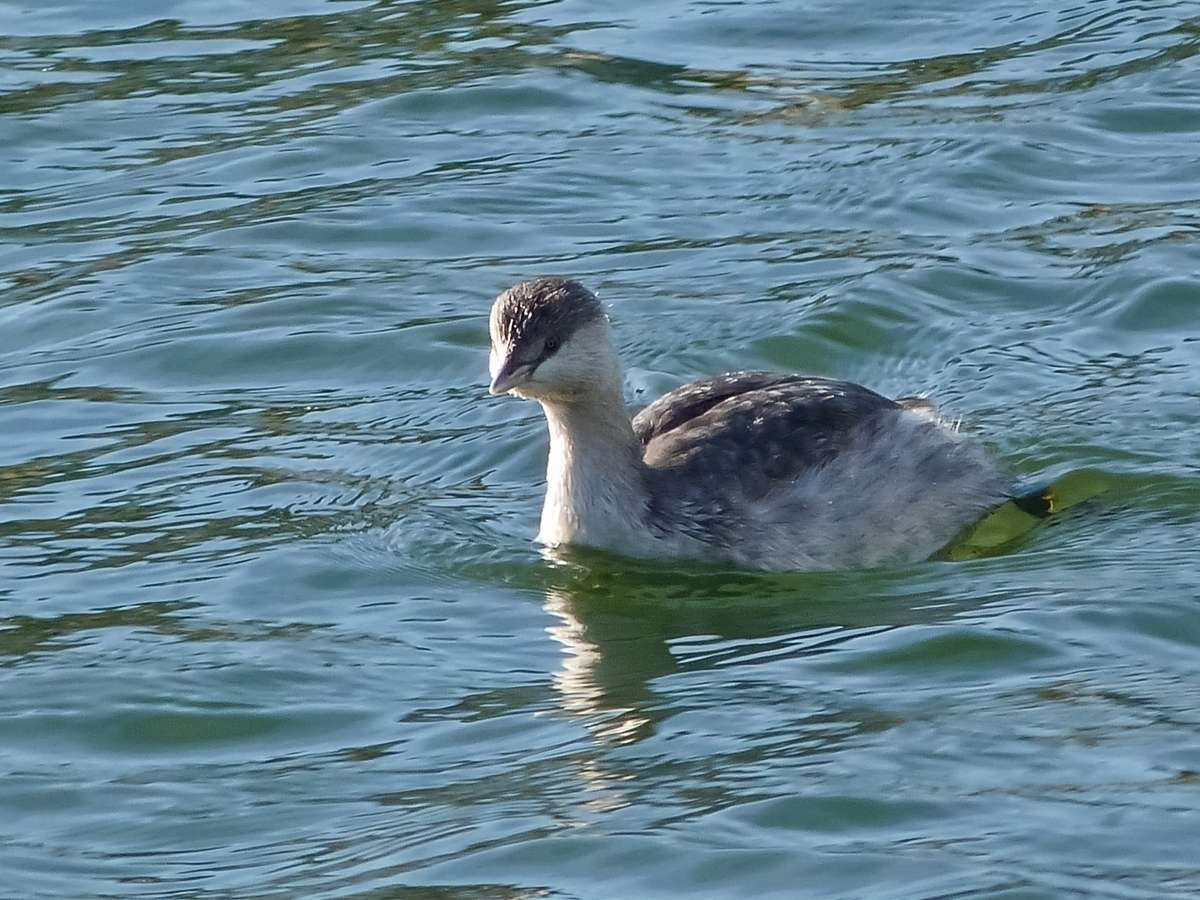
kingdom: Animalia
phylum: Chordata
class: Aves
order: Podicipediformes
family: Podicipedidae
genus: Poliocephalus
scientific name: Poliocephalus poliocephalus
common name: Hoary-headed grebe
